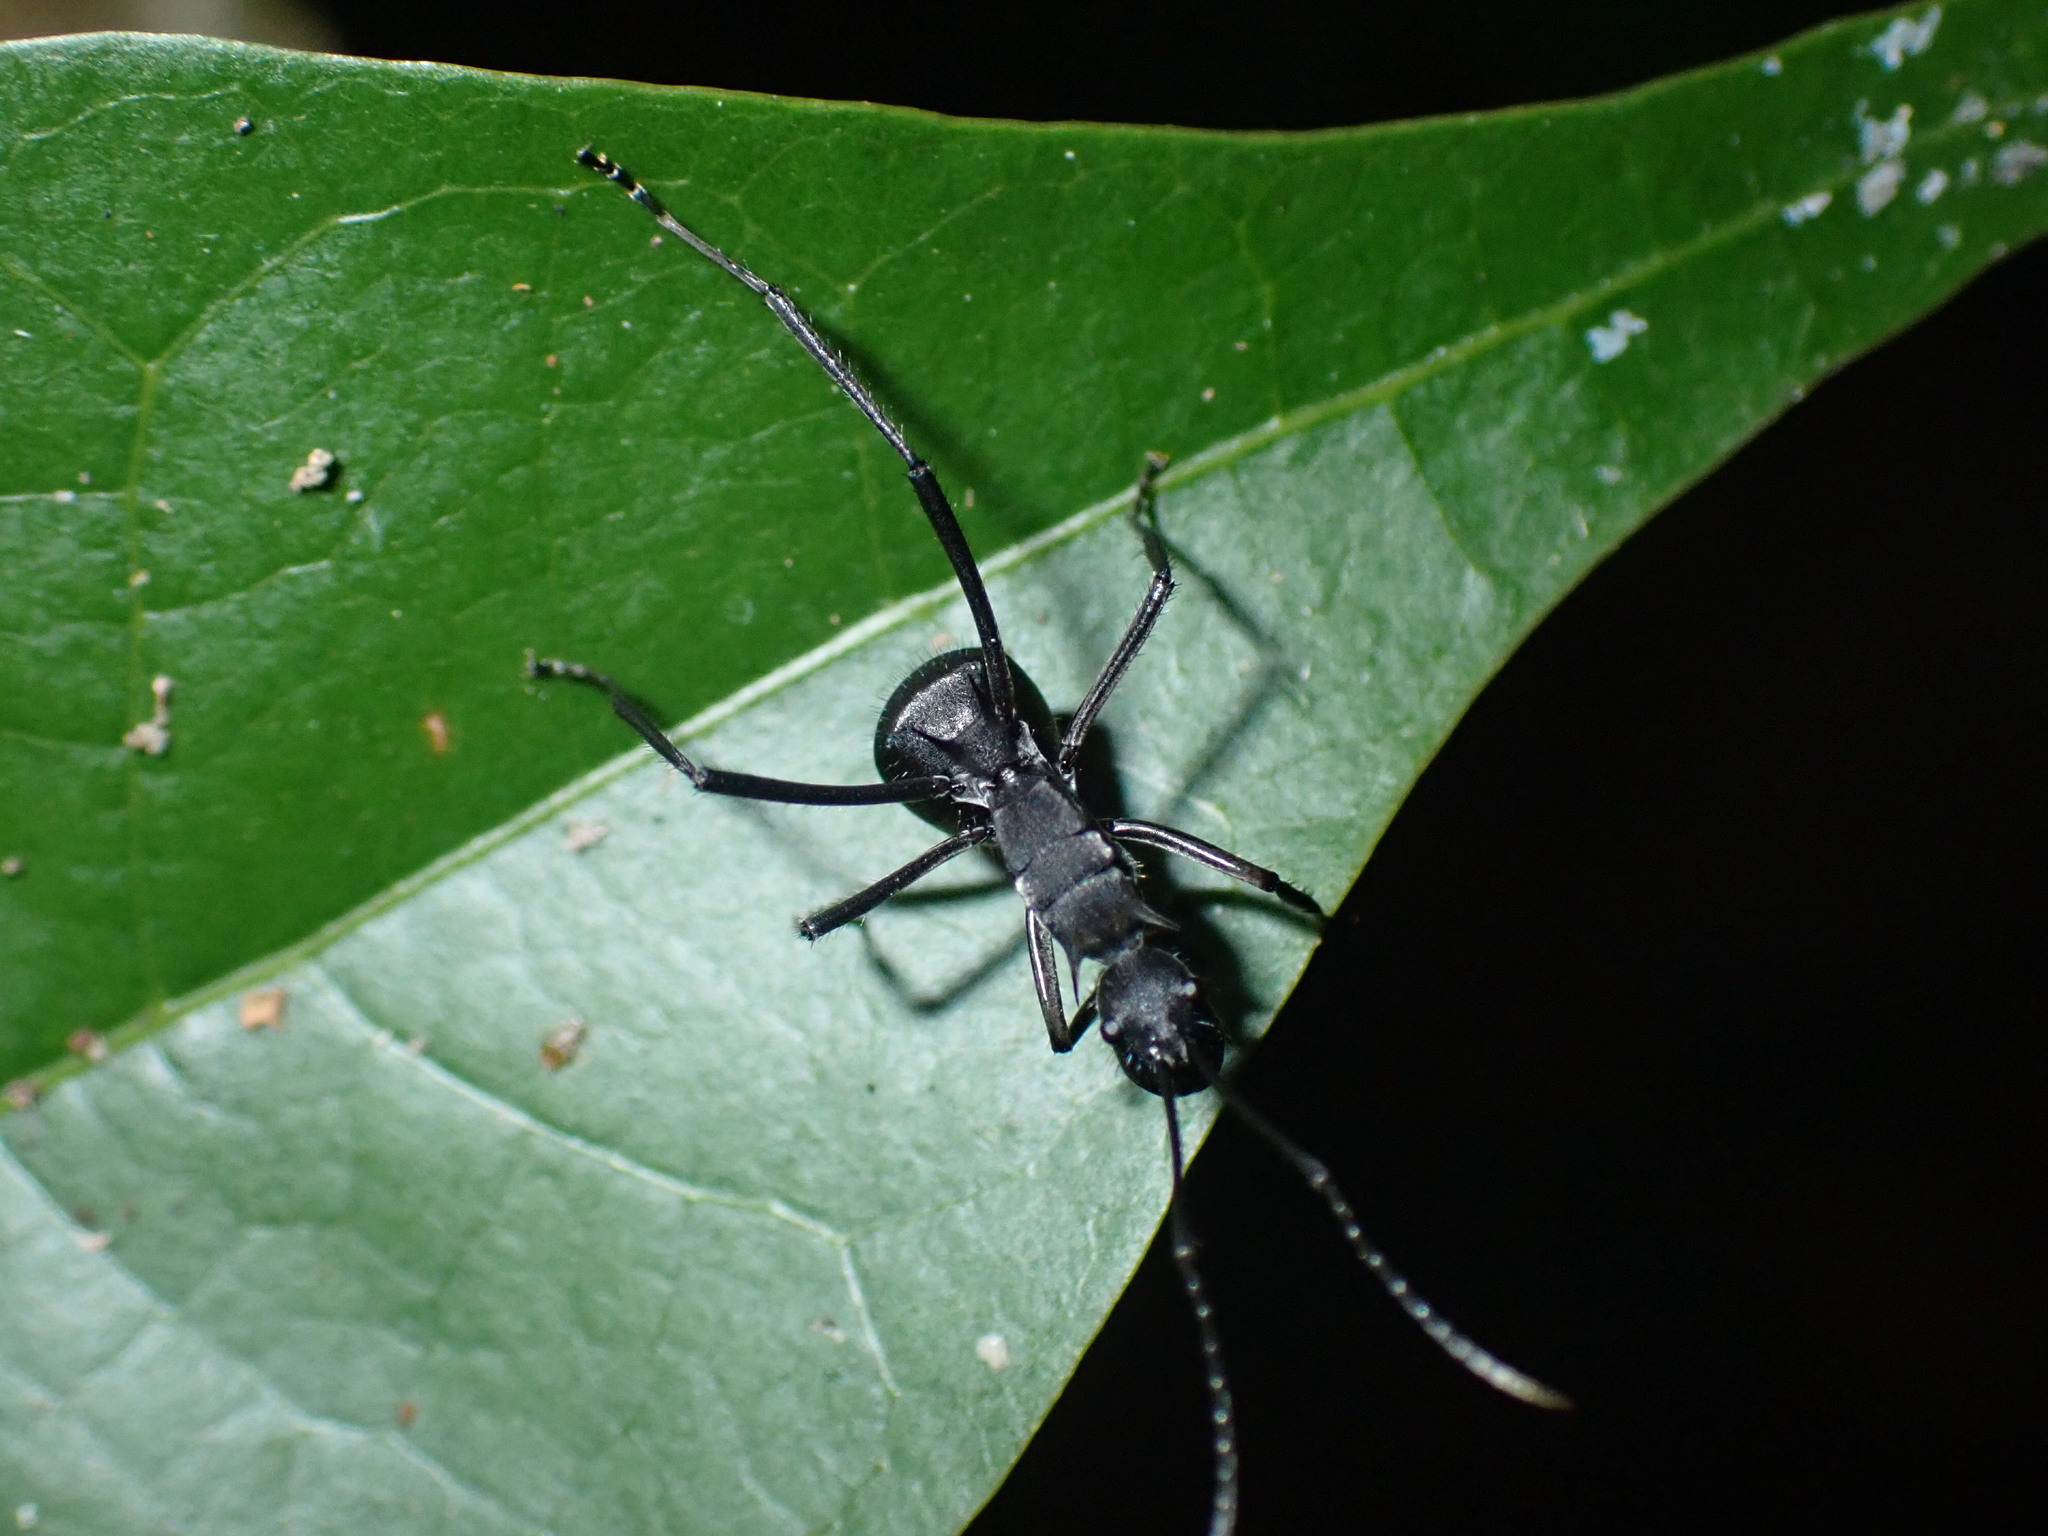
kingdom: Animalia
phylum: Arthropoda
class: Insecta
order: Hymenoptera
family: Formicidae
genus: Polyrhachis
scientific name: Polyrhachis striata
